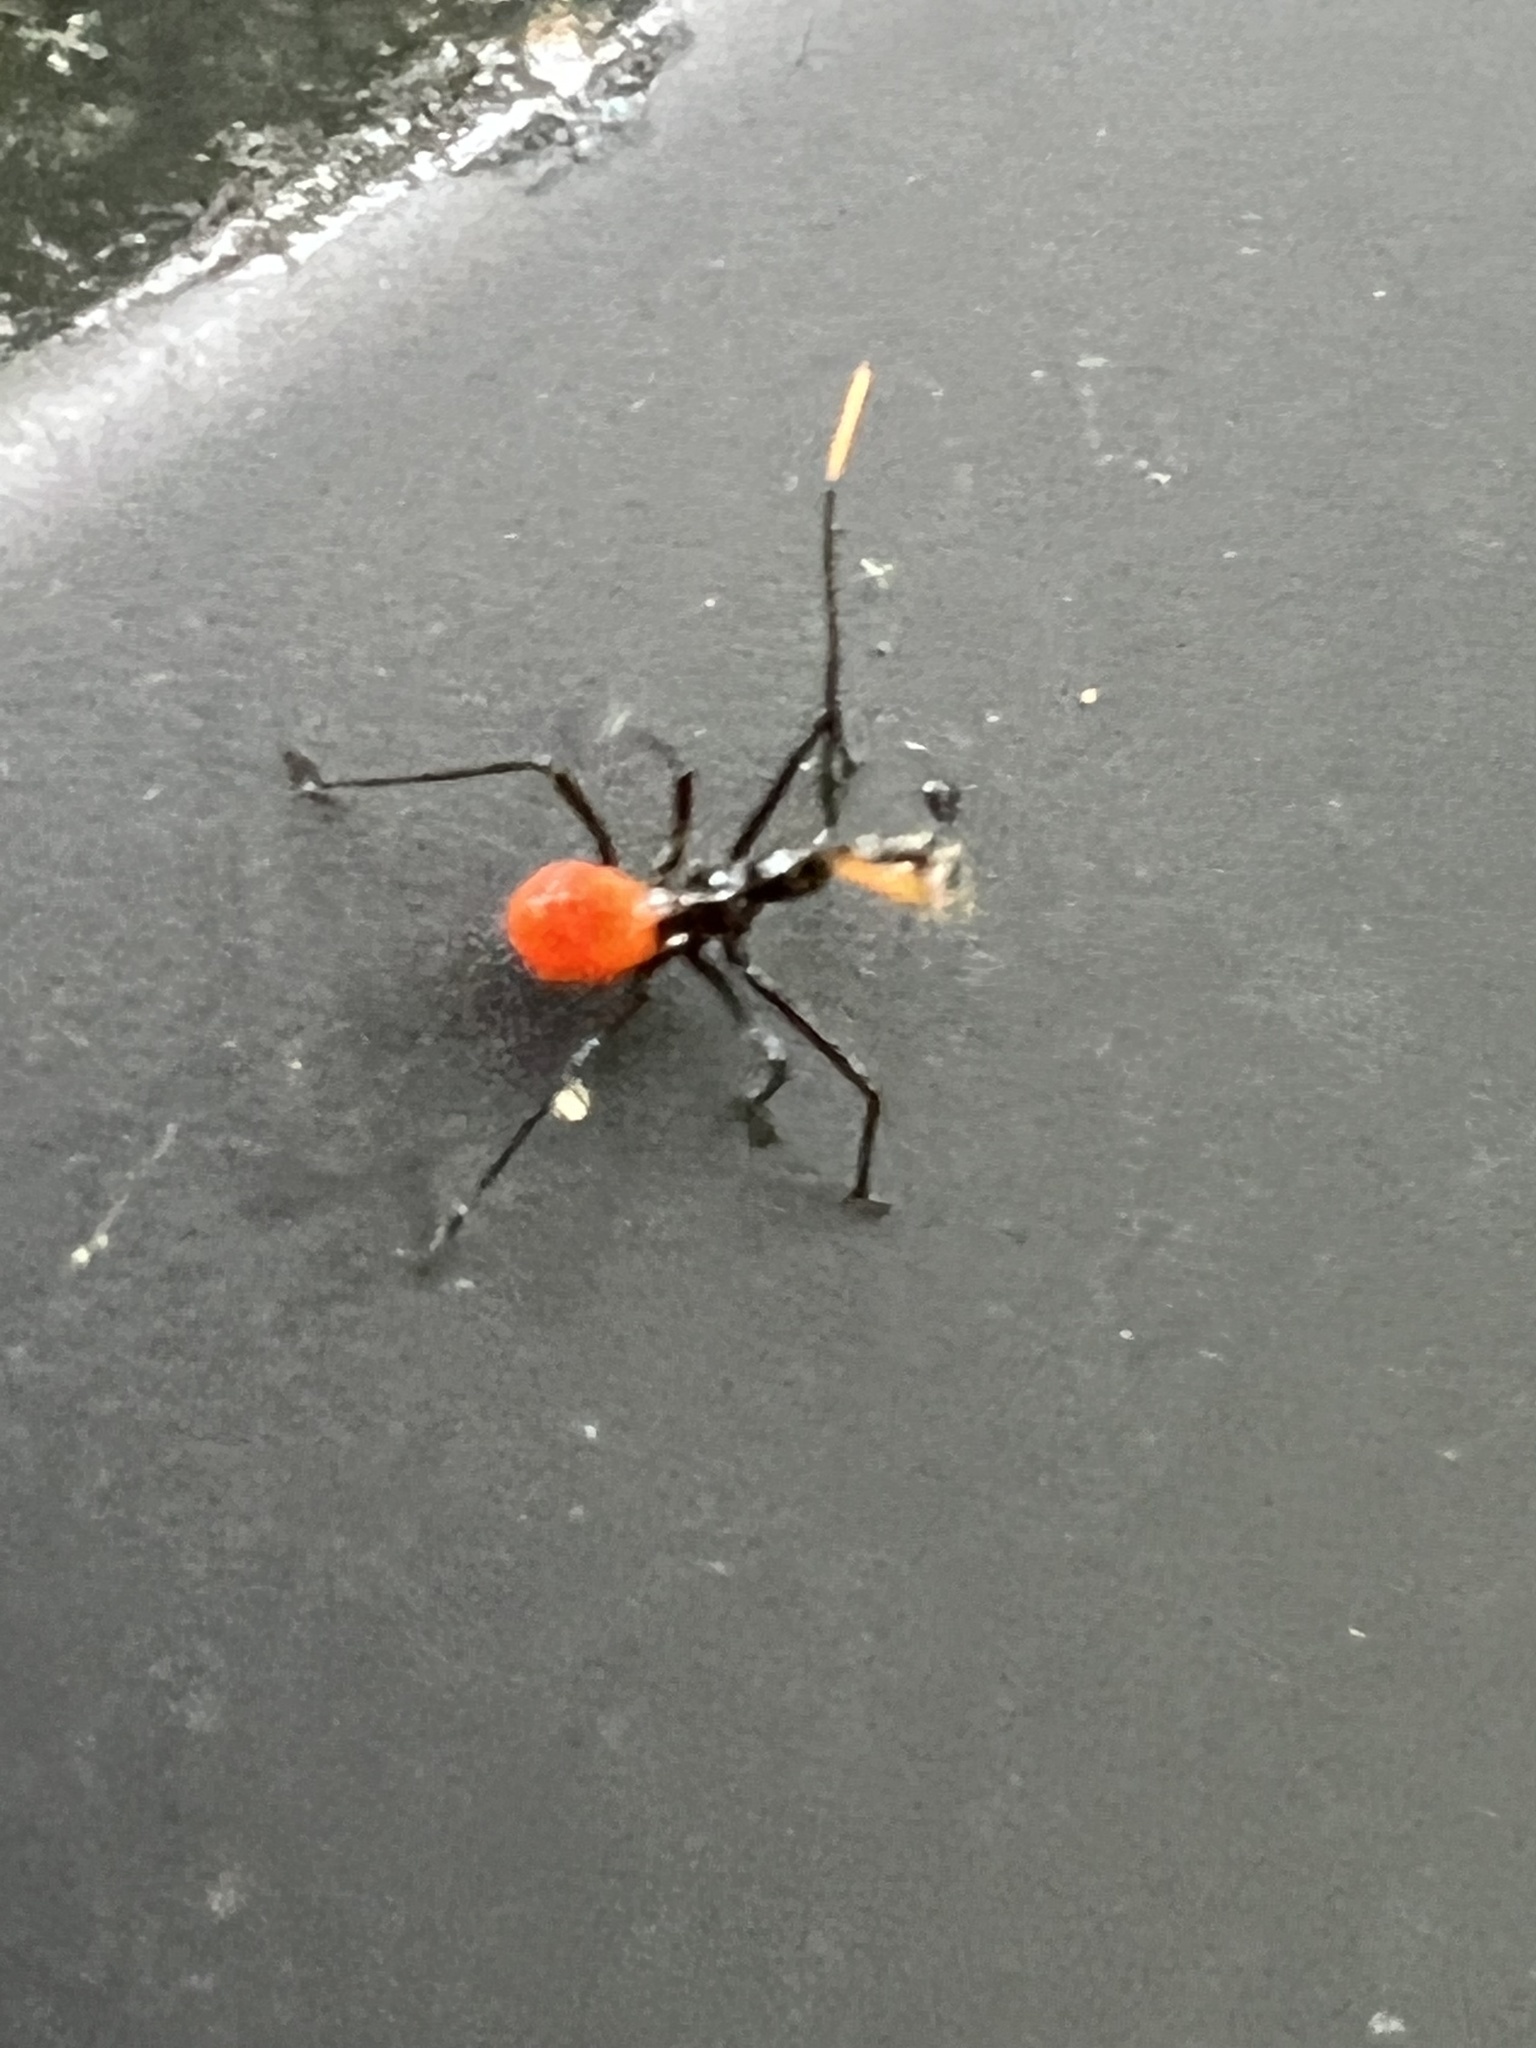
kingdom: Animalia
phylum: Arthropoda
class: Insecta
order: Hemiptera
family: Reduviidae
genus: Arilus
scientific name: Arilus cristatus
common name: North american wheel bug
